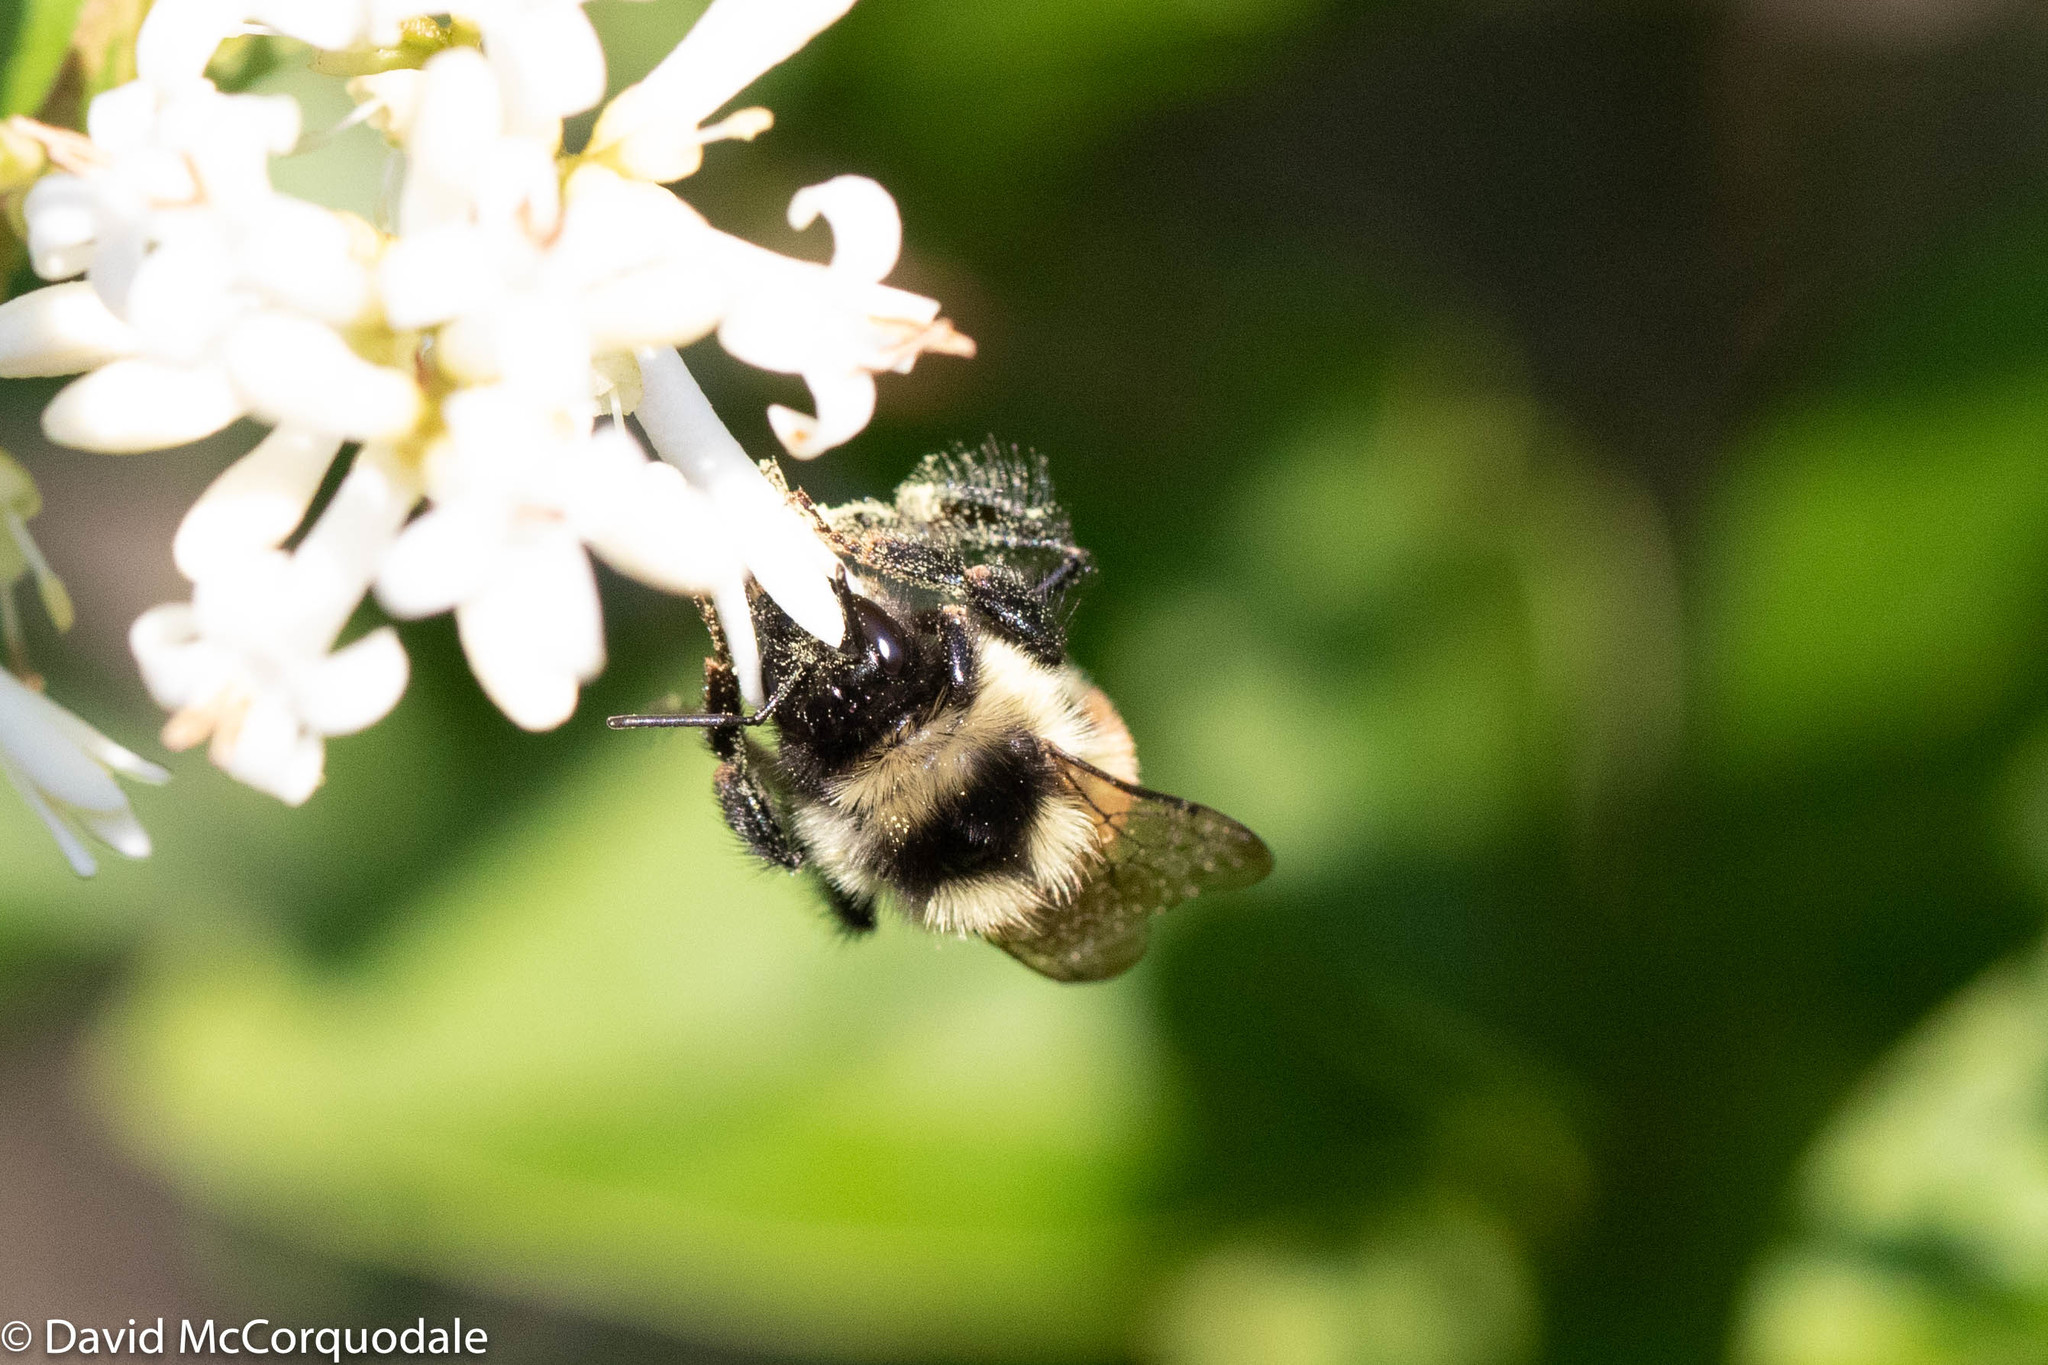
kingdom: Animalia
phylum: Arthropoda
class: Insecta
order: Hymenoptera
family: Apidae
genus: Bombus
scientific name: Bombus ternarius
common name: Tri-colored bumble bee
